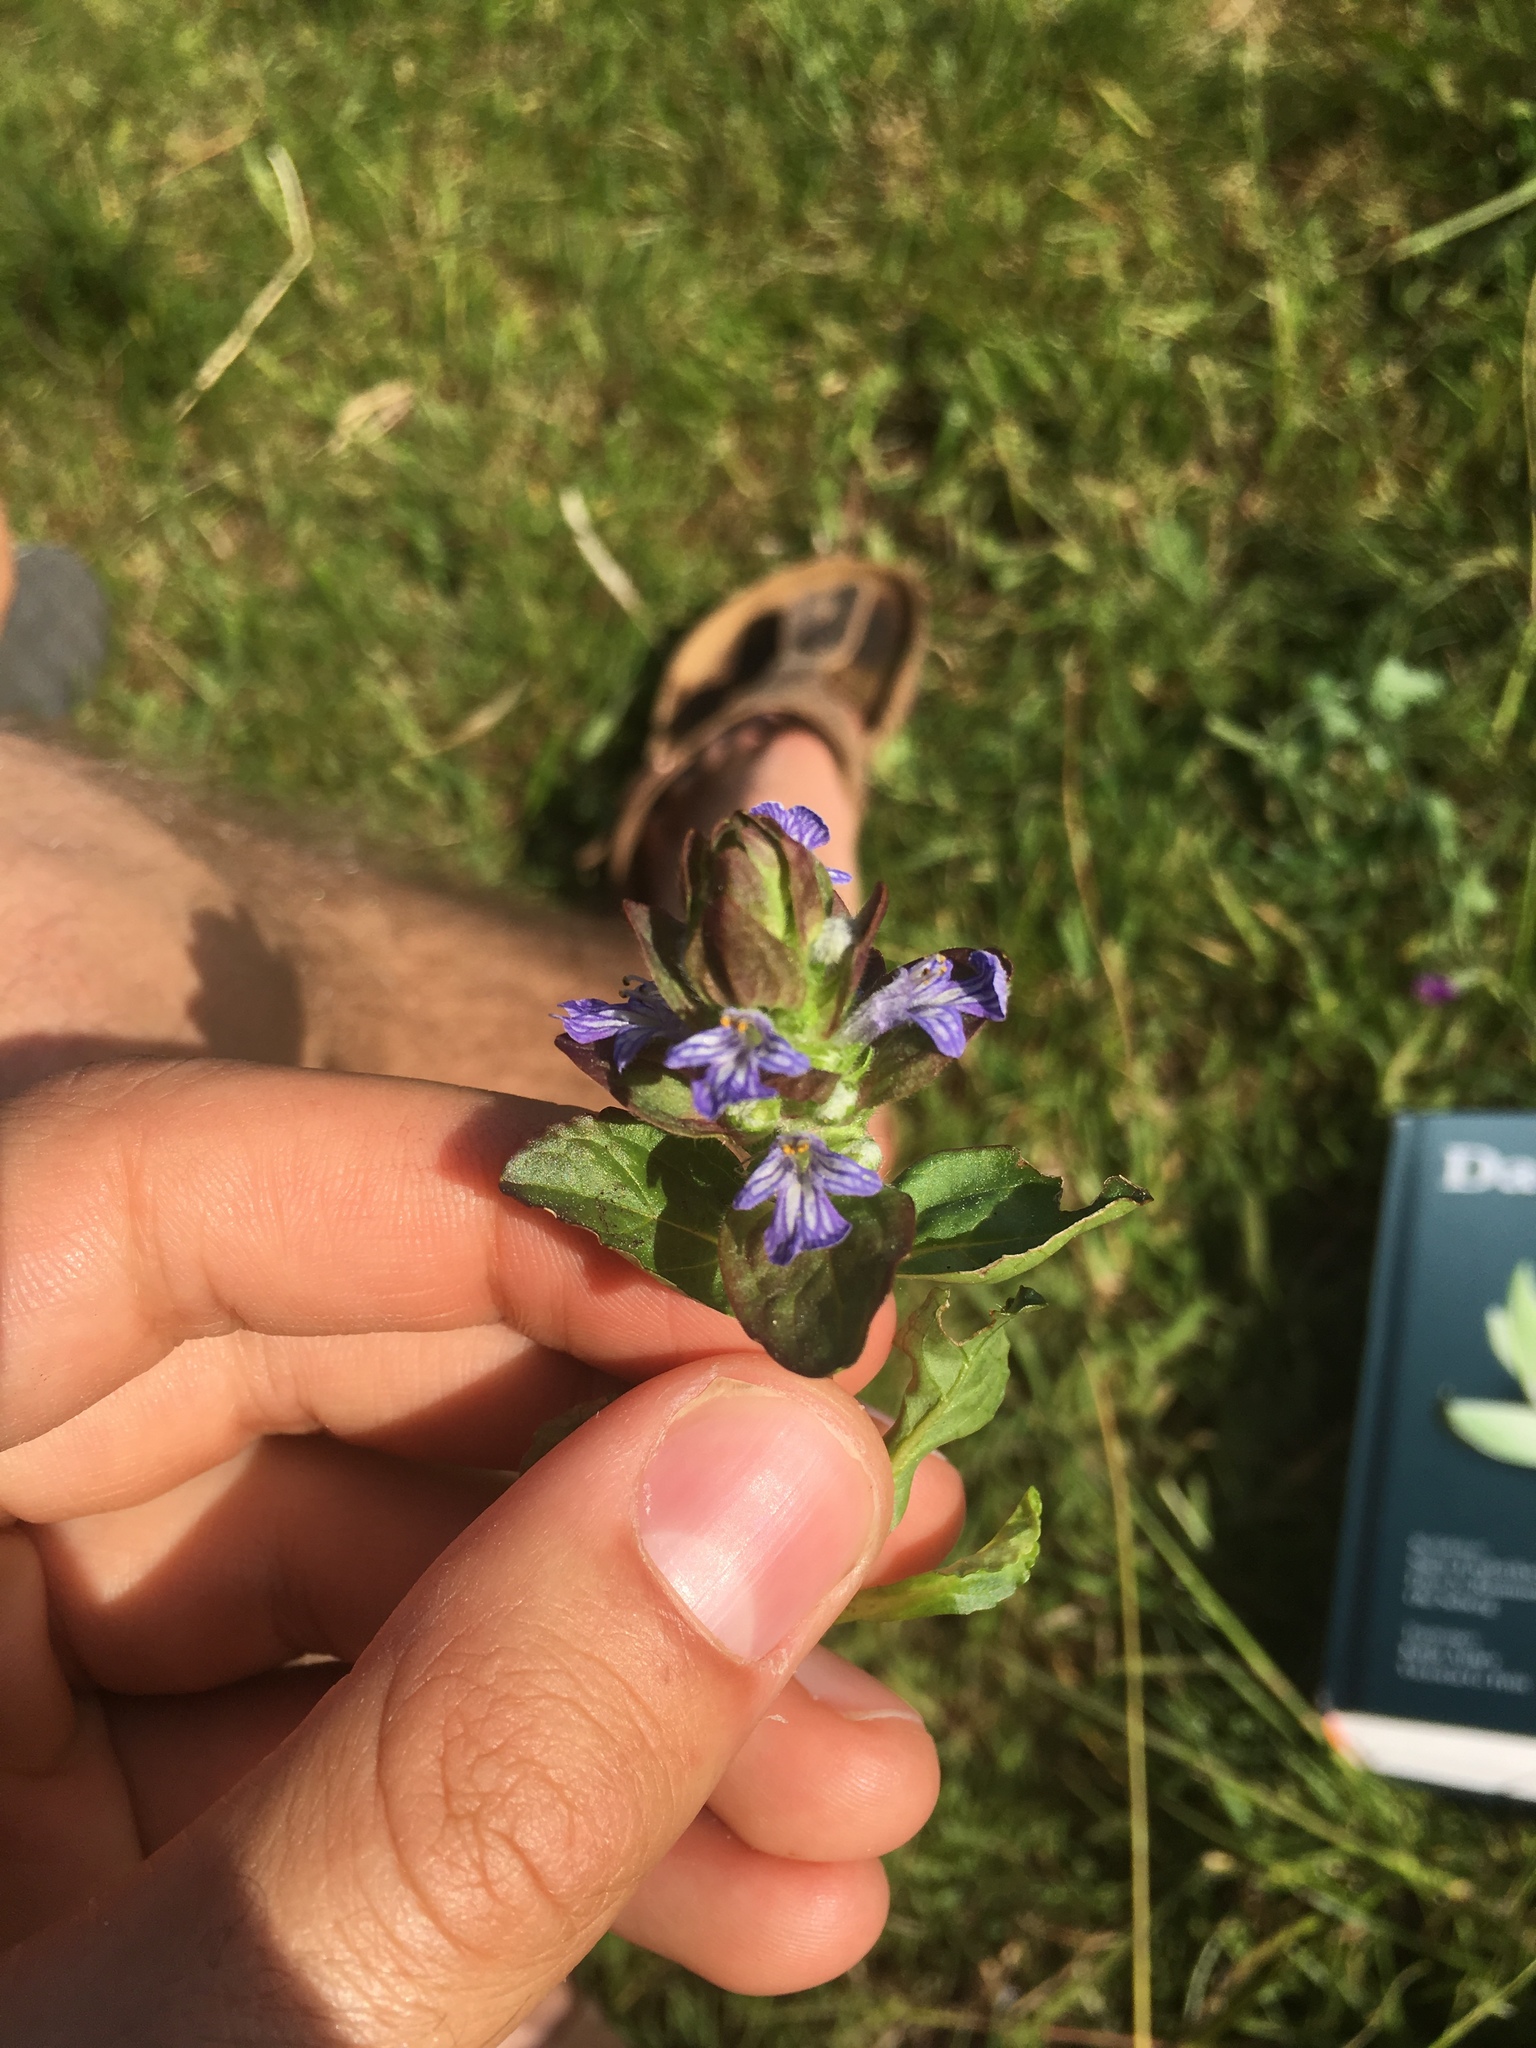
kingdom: Plantae
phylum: Tracheophyta
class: Magnoliopsida
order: Lamiales
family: Lamiaceae
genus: Ajuga
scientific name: Ajuga reptans
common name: Bugle
